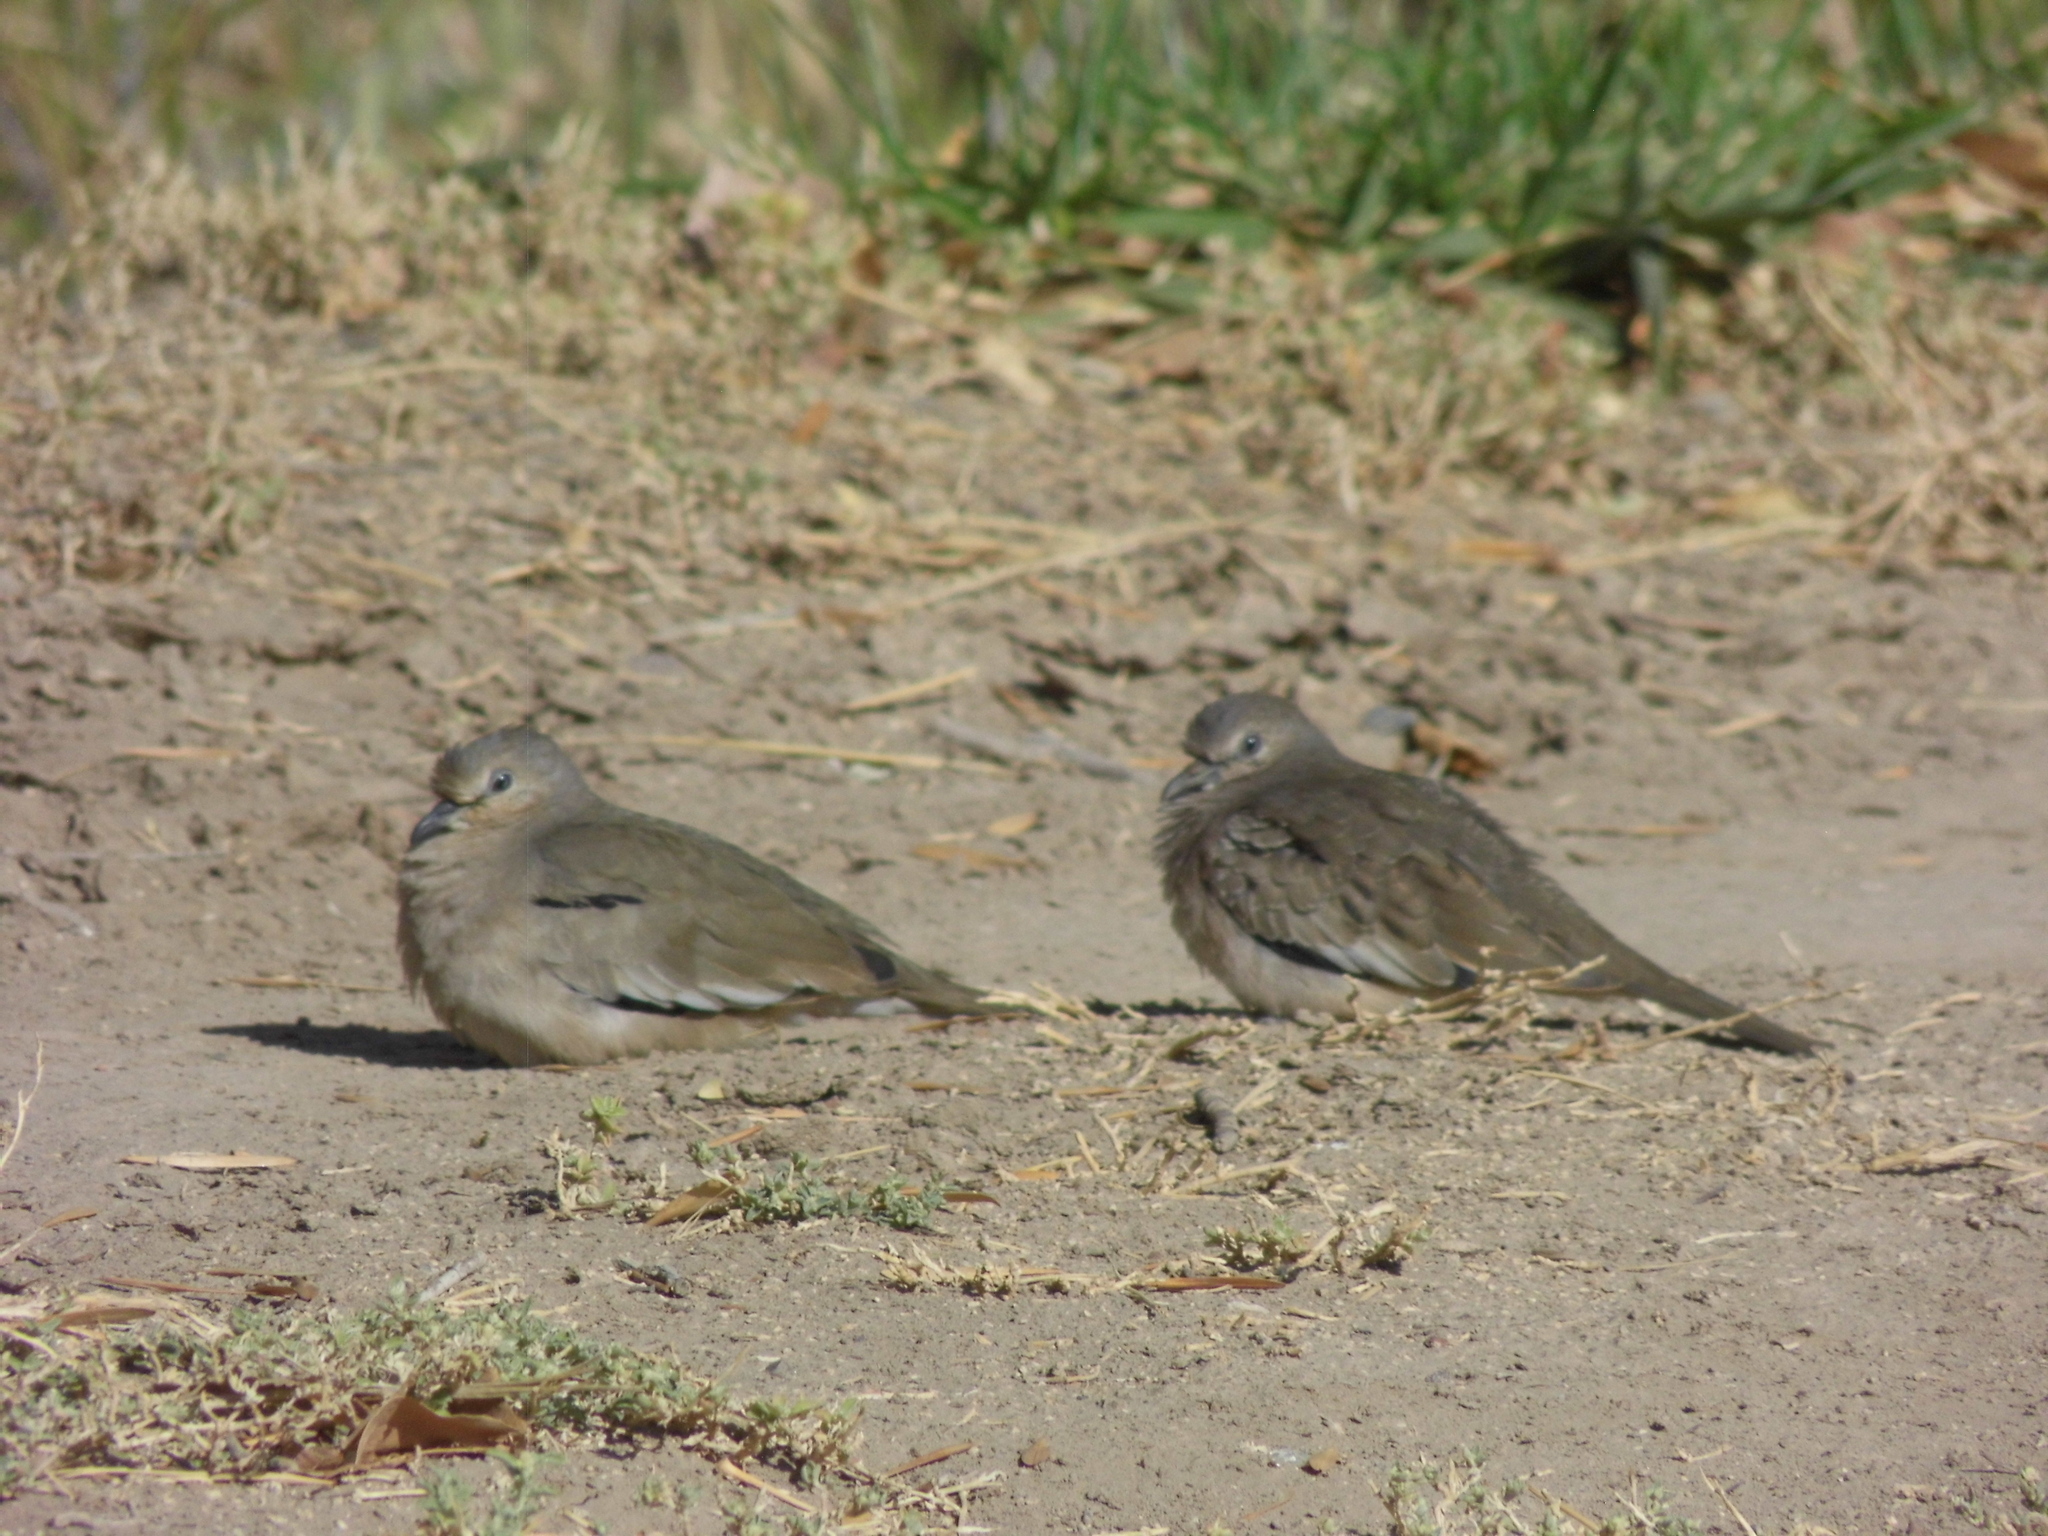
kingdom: Animalia
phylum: Chordata
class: Aves
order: Columbiformes
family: Columbidae
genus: Columbina
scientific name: Columbina picui
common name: Picui ground dove
